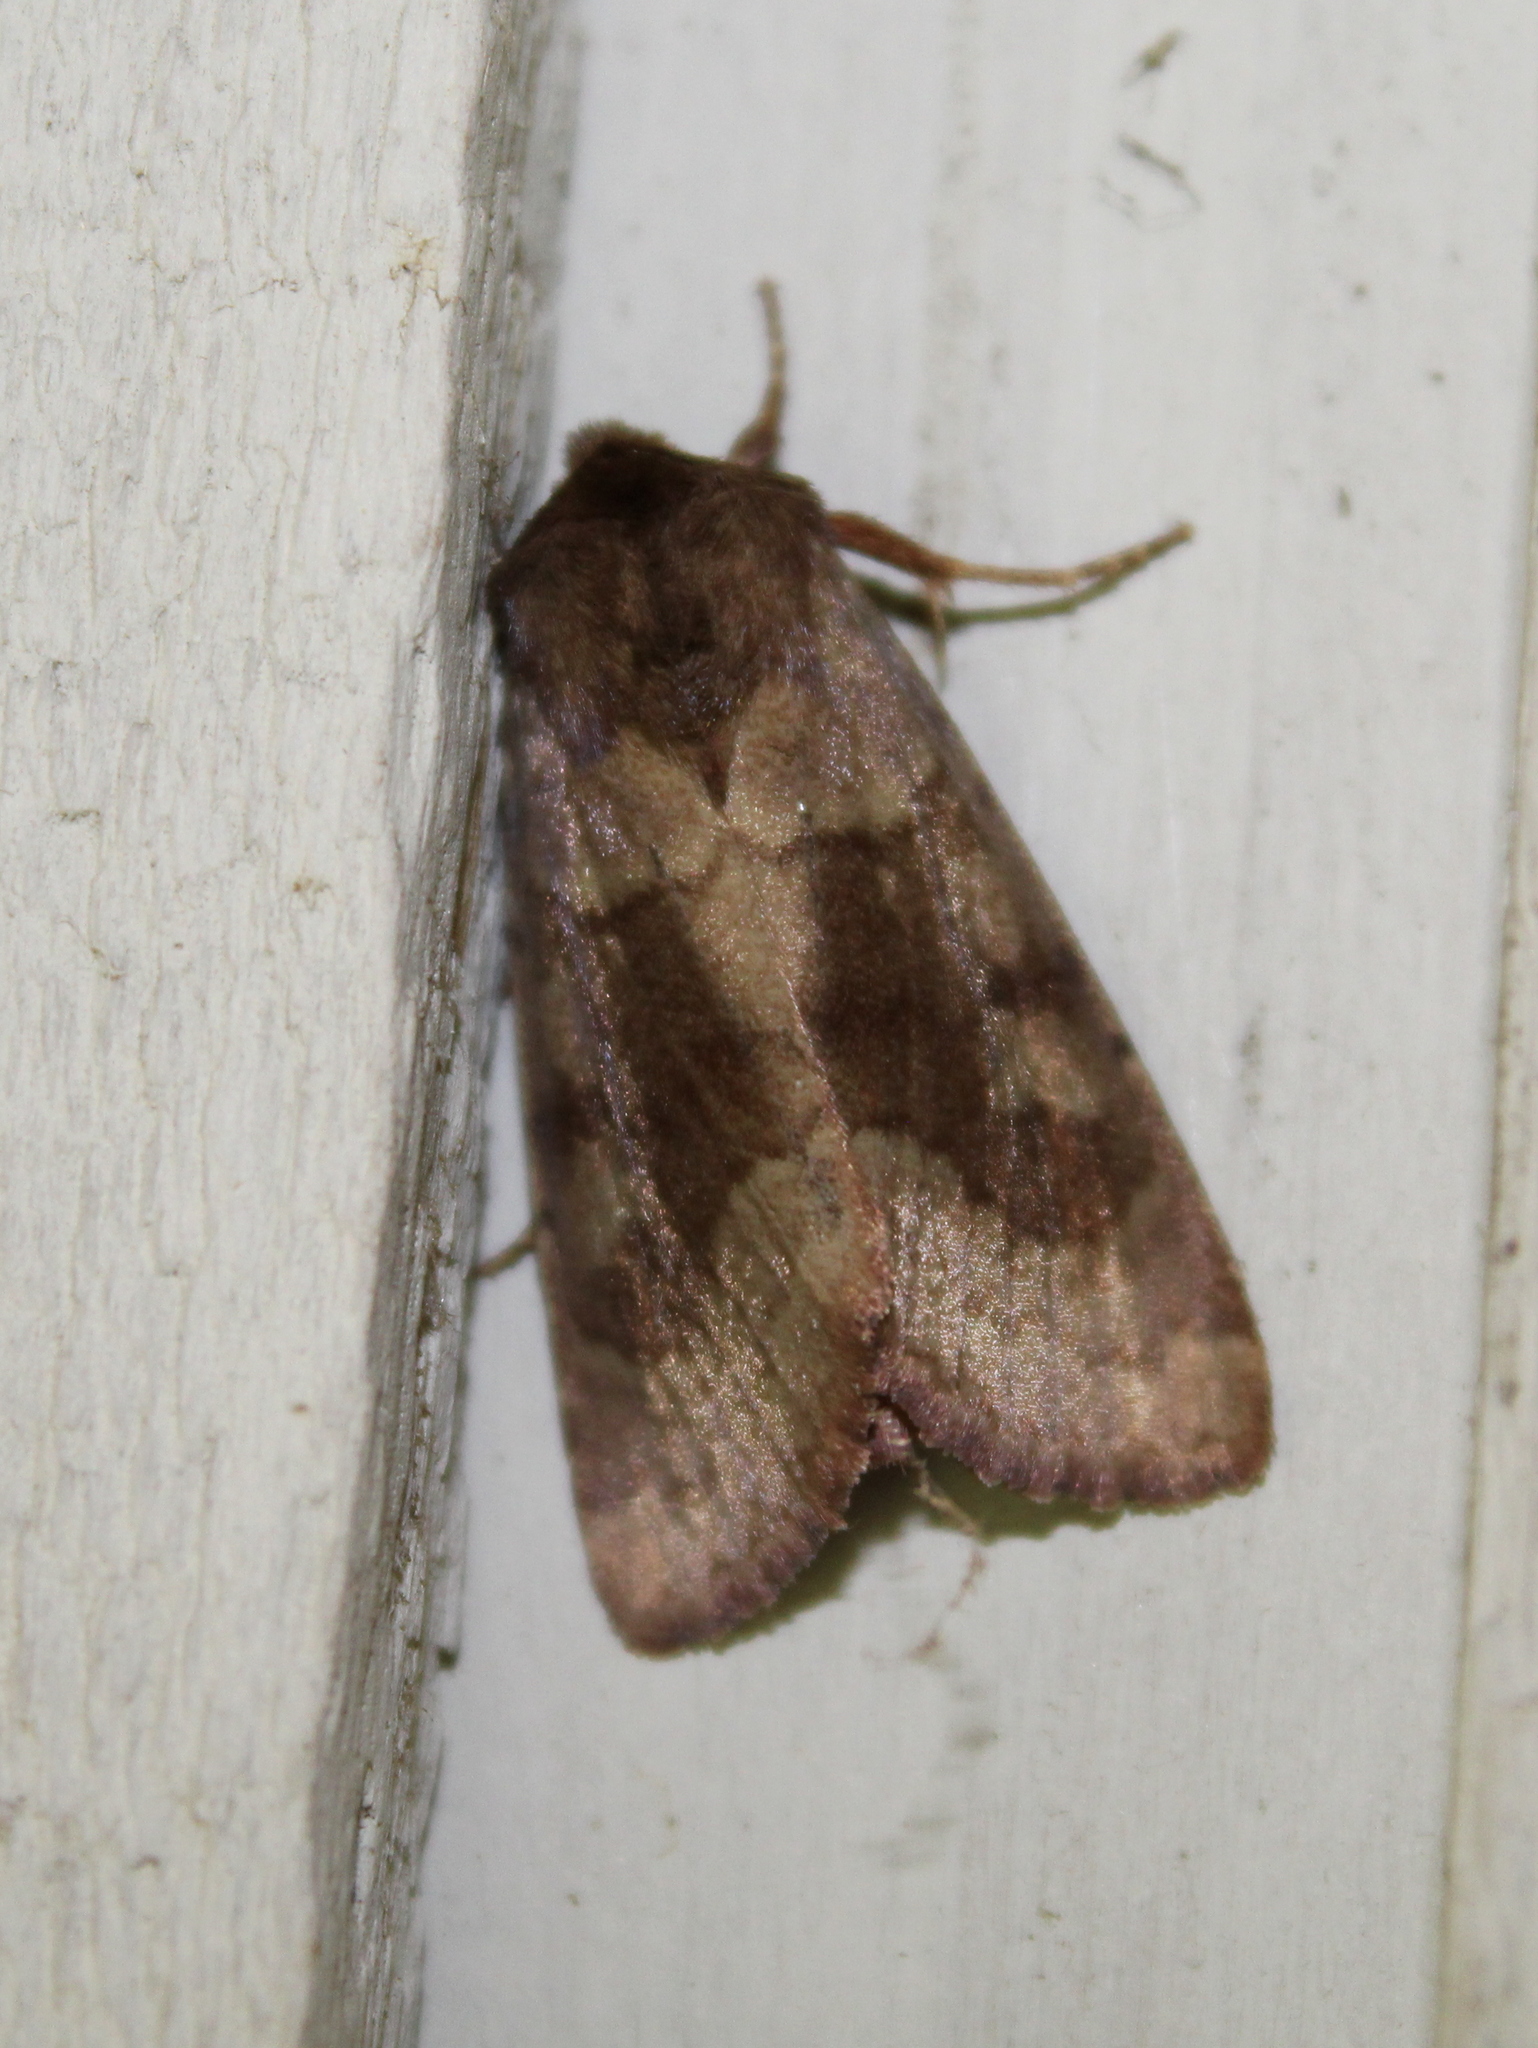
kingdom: Animalia
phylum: Arthropoda
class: Insecta
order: Lepidoptera
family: Noctuidae
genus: Nephelodes
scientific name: Nephelodes minians
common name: Bronzed cutworm
